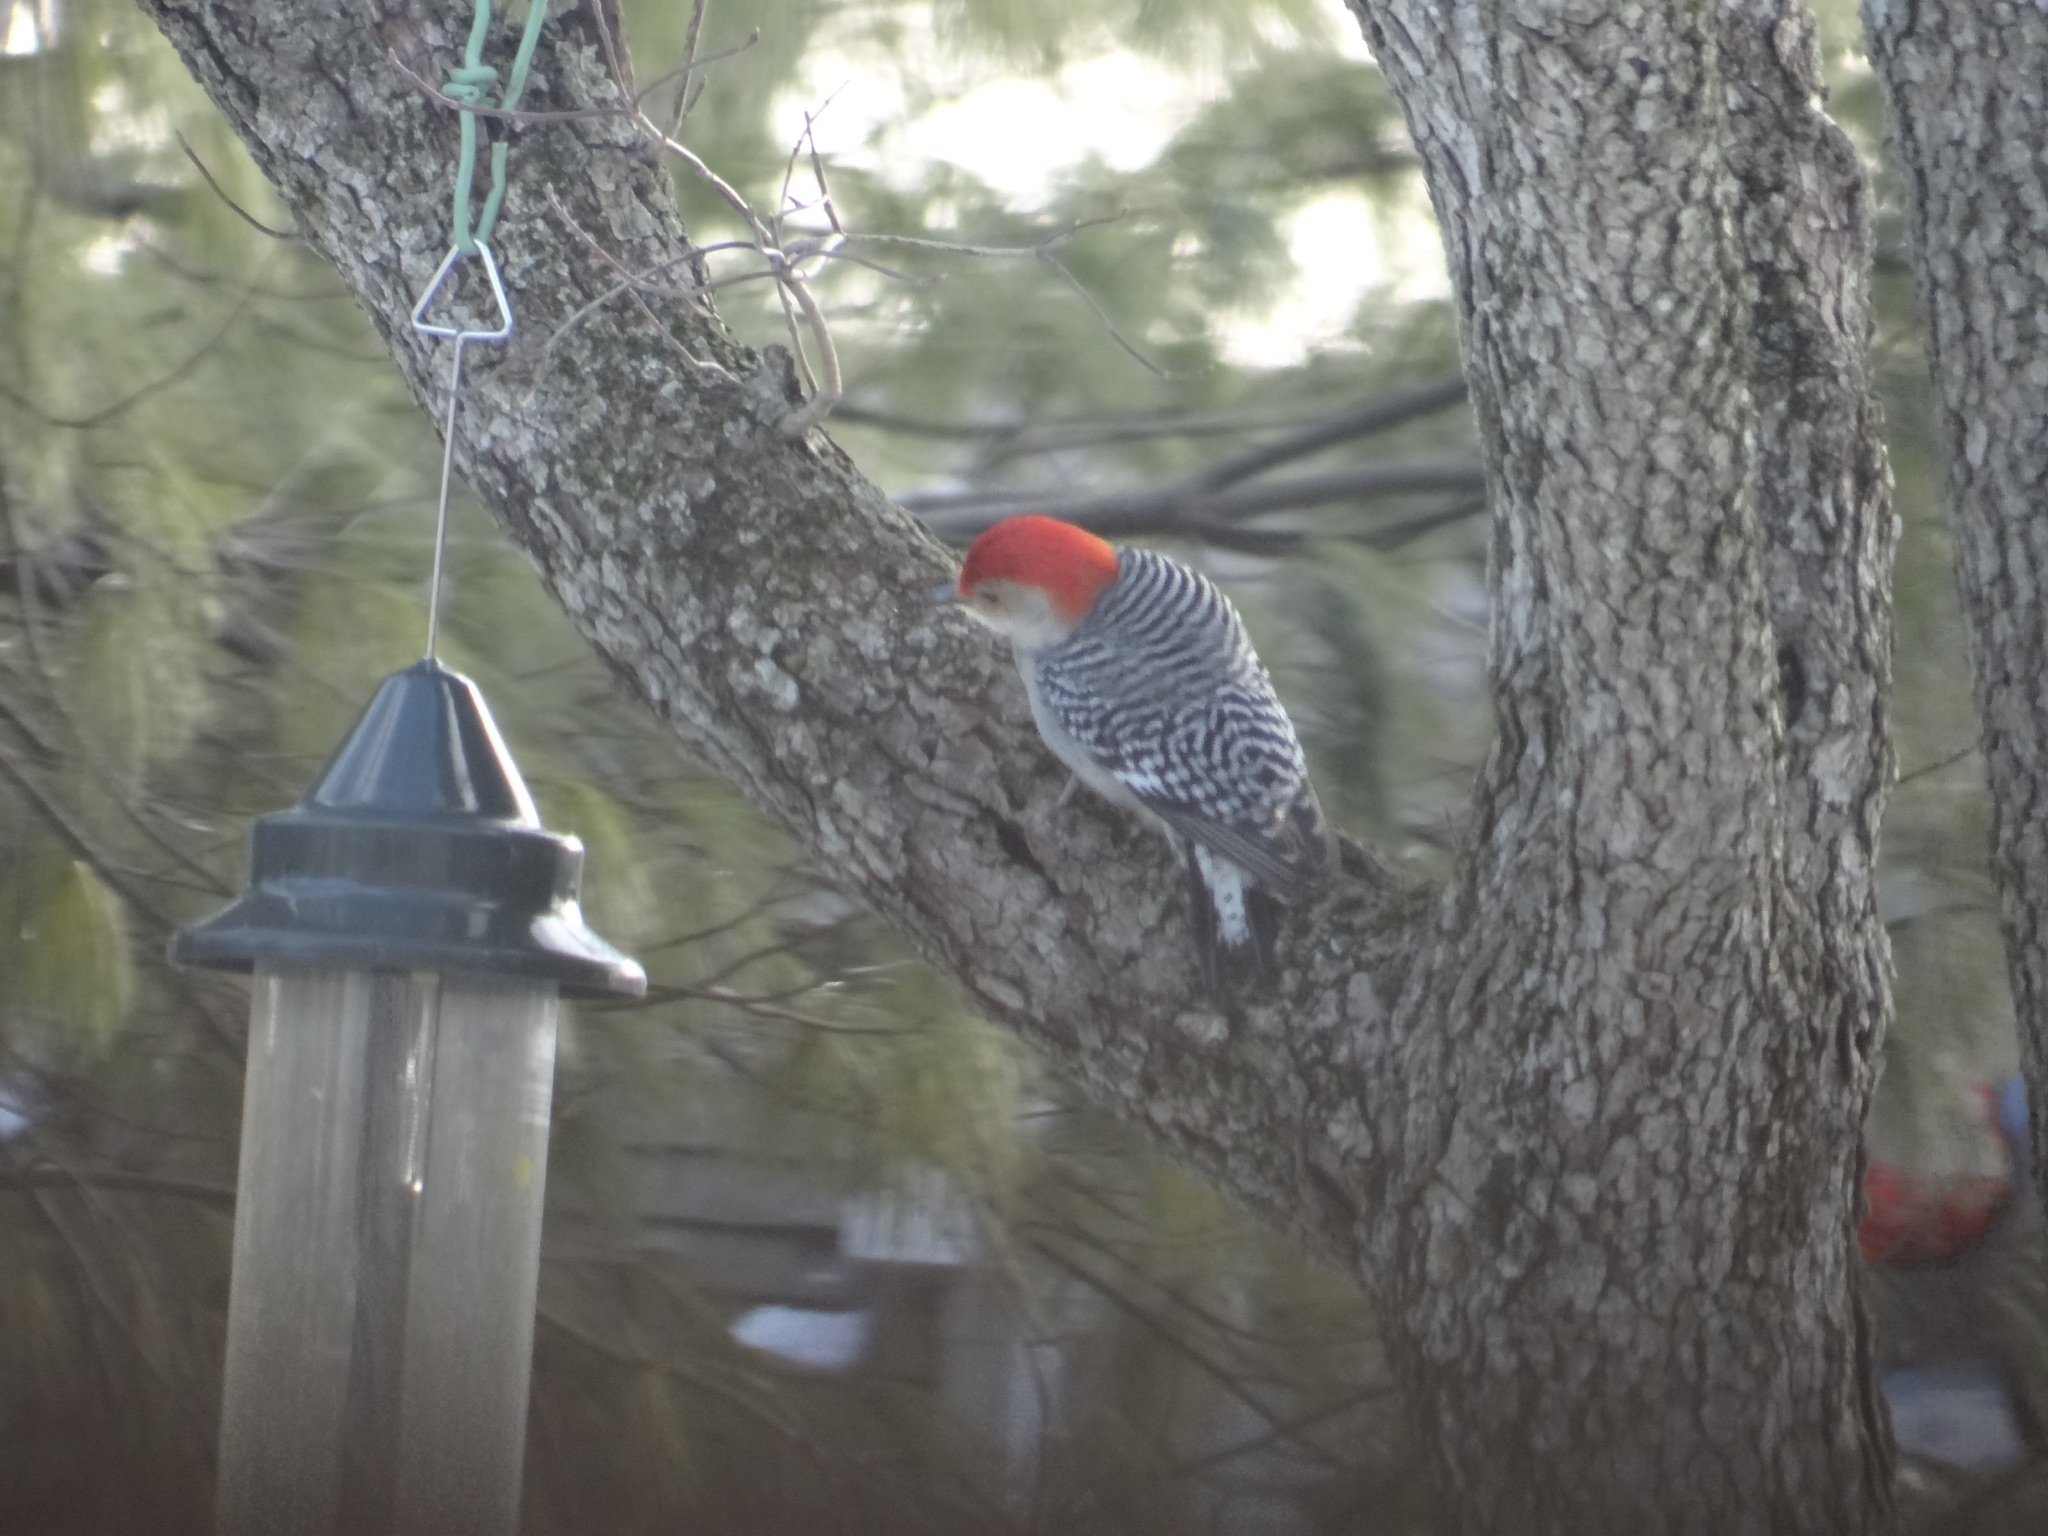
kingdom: Animalia
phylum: Chordata
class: Aves
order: Piciformes
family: Picidae
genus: Melanerpes
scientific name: Melanerpes carolinus
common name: Red-bellied woodpecker
